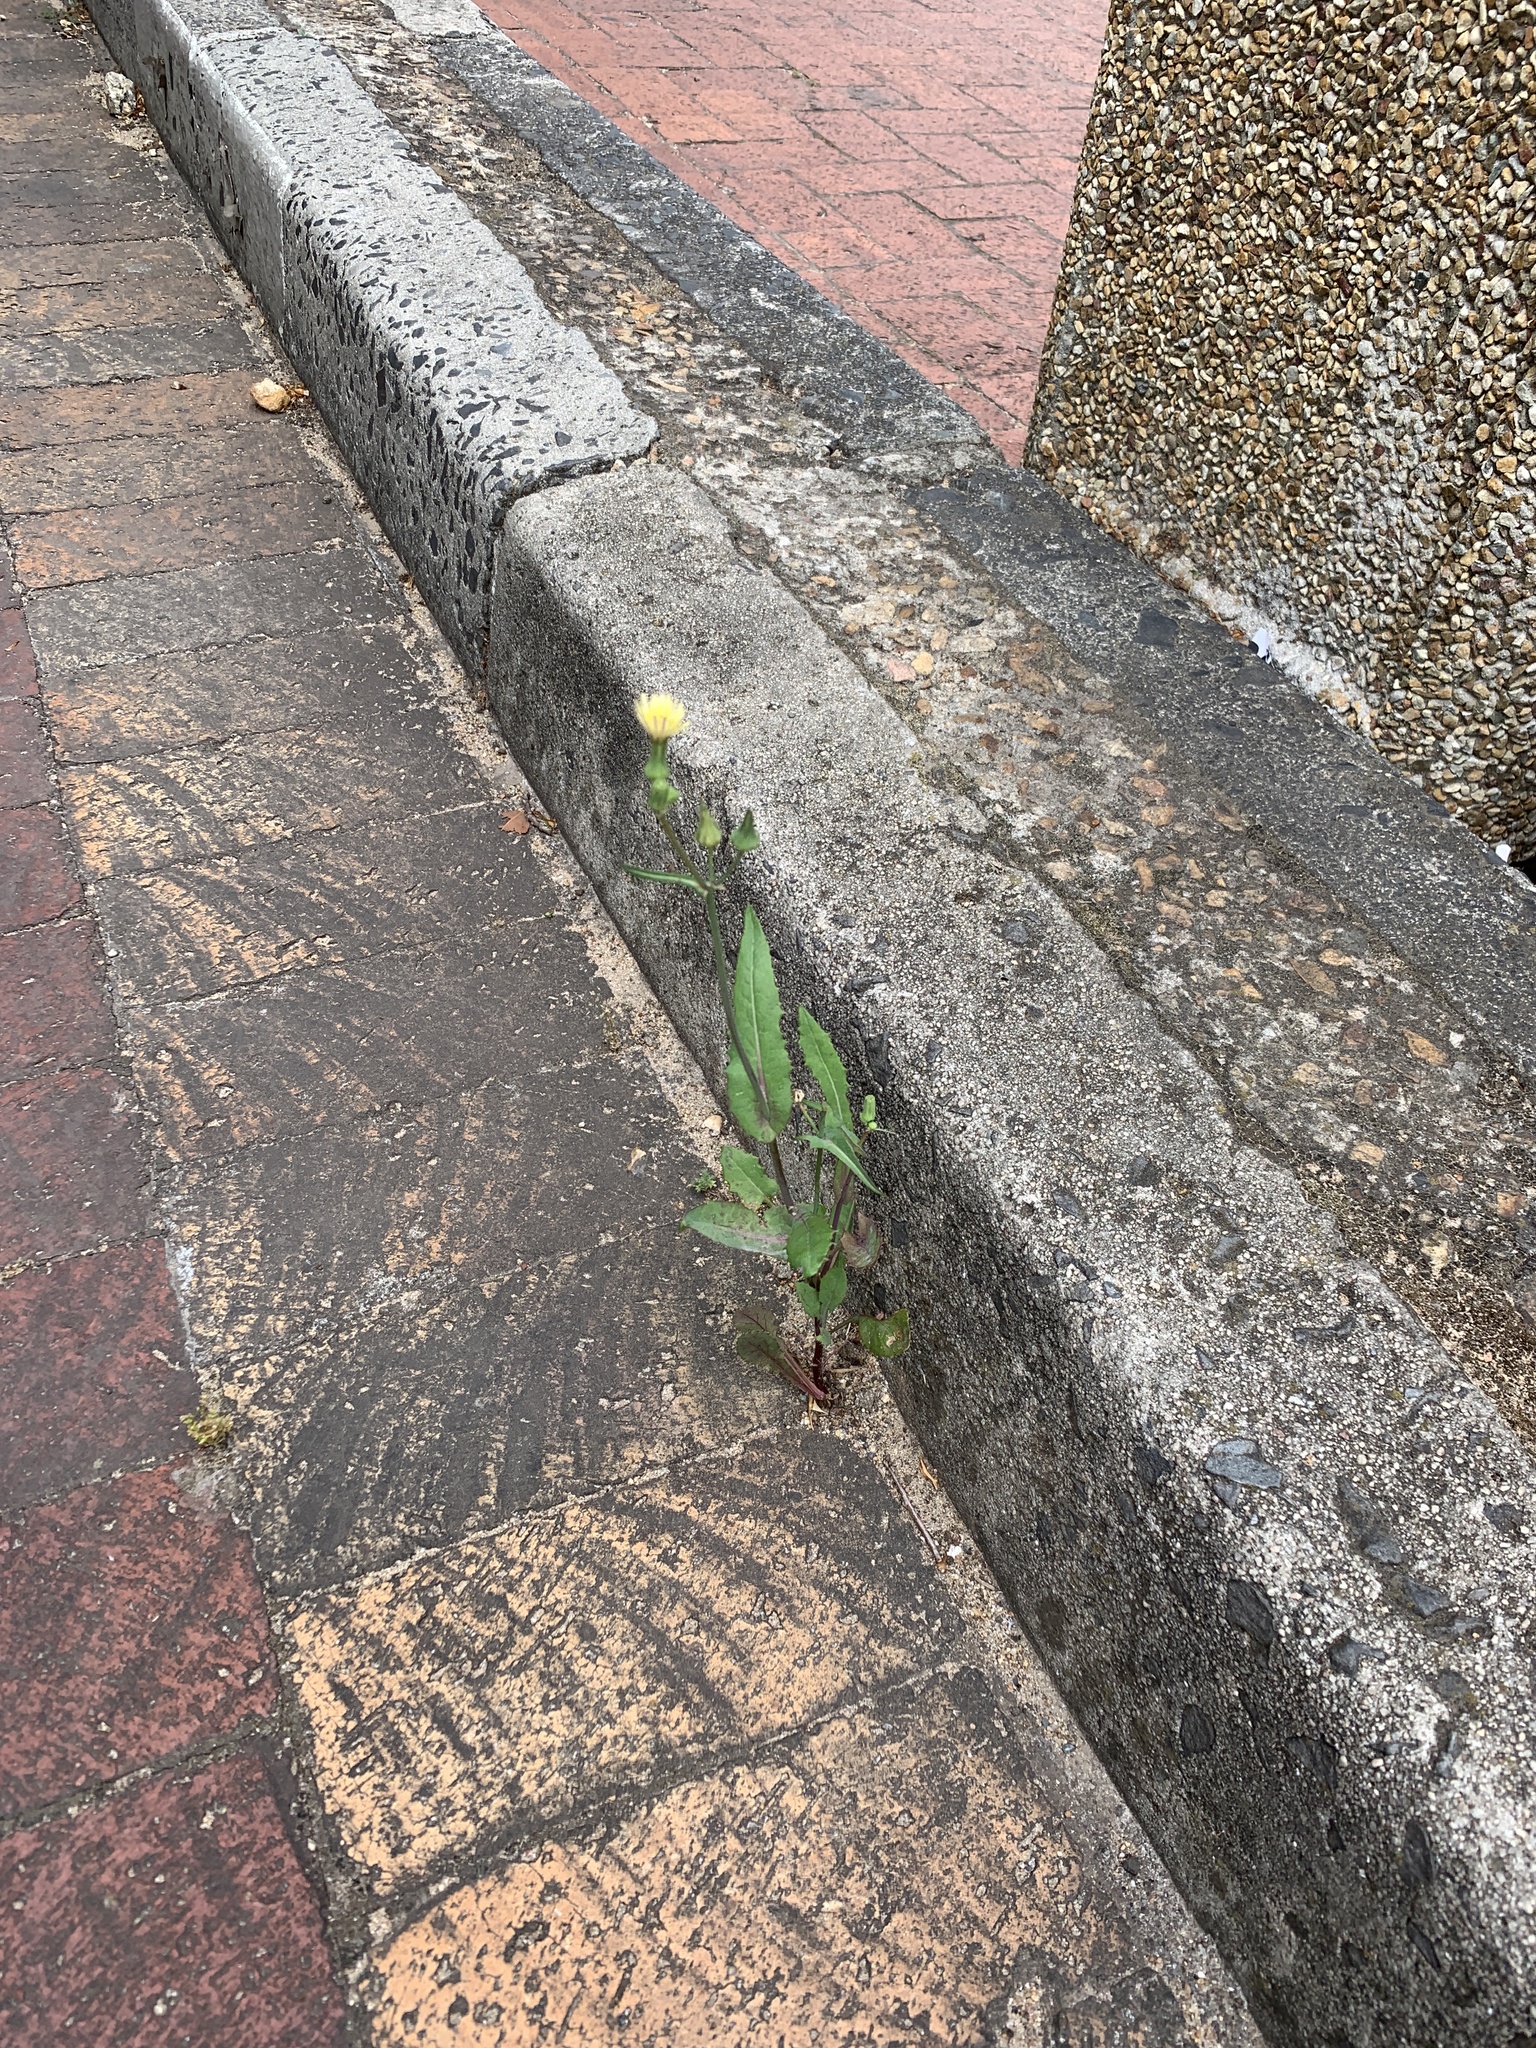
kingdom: Plantae
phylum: Tracheophyta
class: Magnoliopsida
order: Asterales
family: Asteraceae
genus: Sonchus
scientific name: Sonchus oleraceus
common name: Common sowthistle
